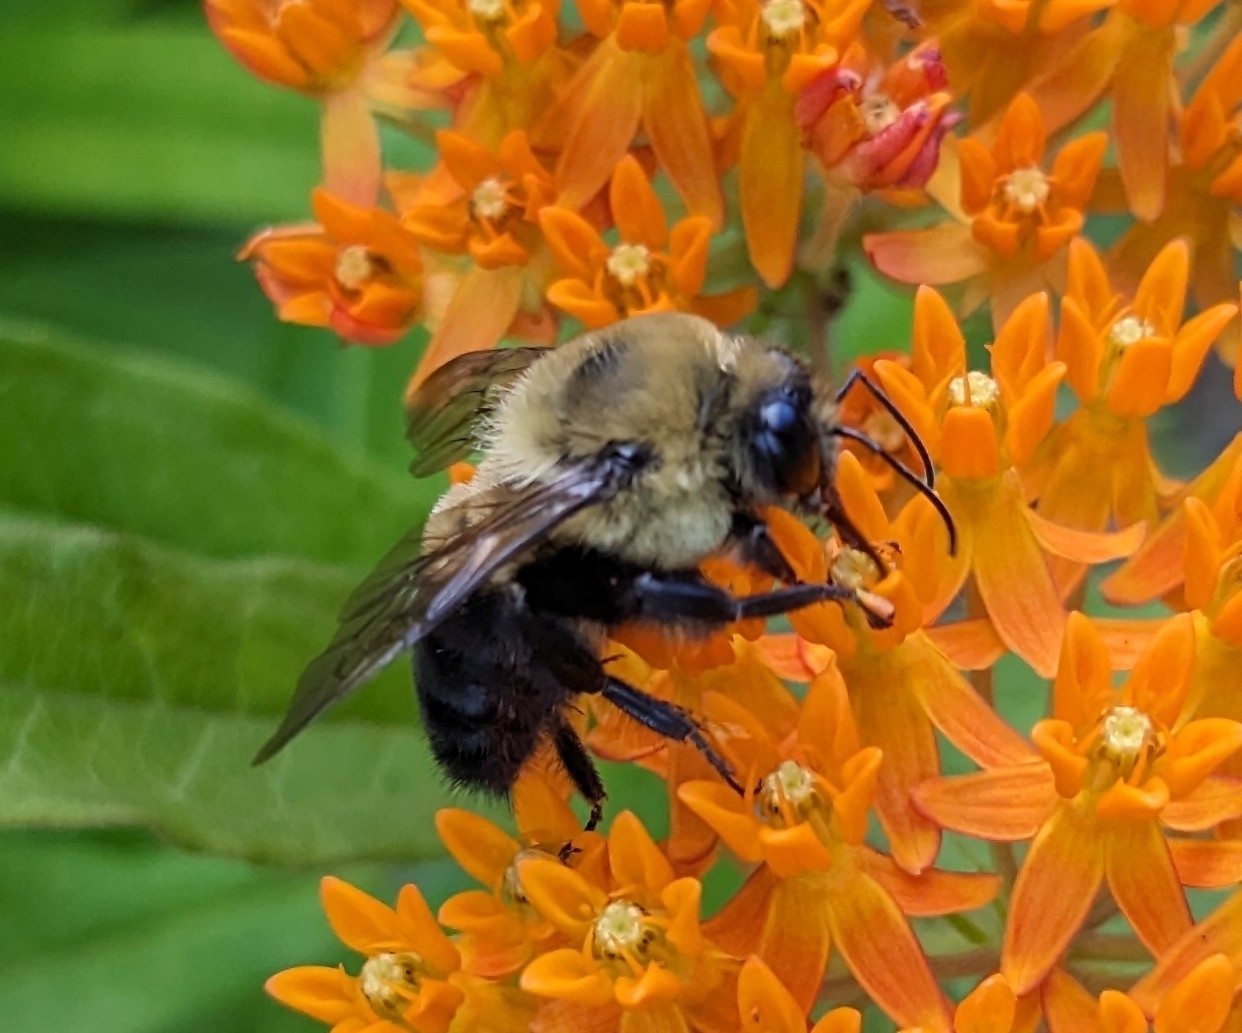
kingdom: Animalia
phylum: Arthropoda
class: Insecta
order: Hymenoptera
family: Apidae
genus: Bombus
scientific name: Bombus griseocollis
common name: Brown-belted bumble bee
